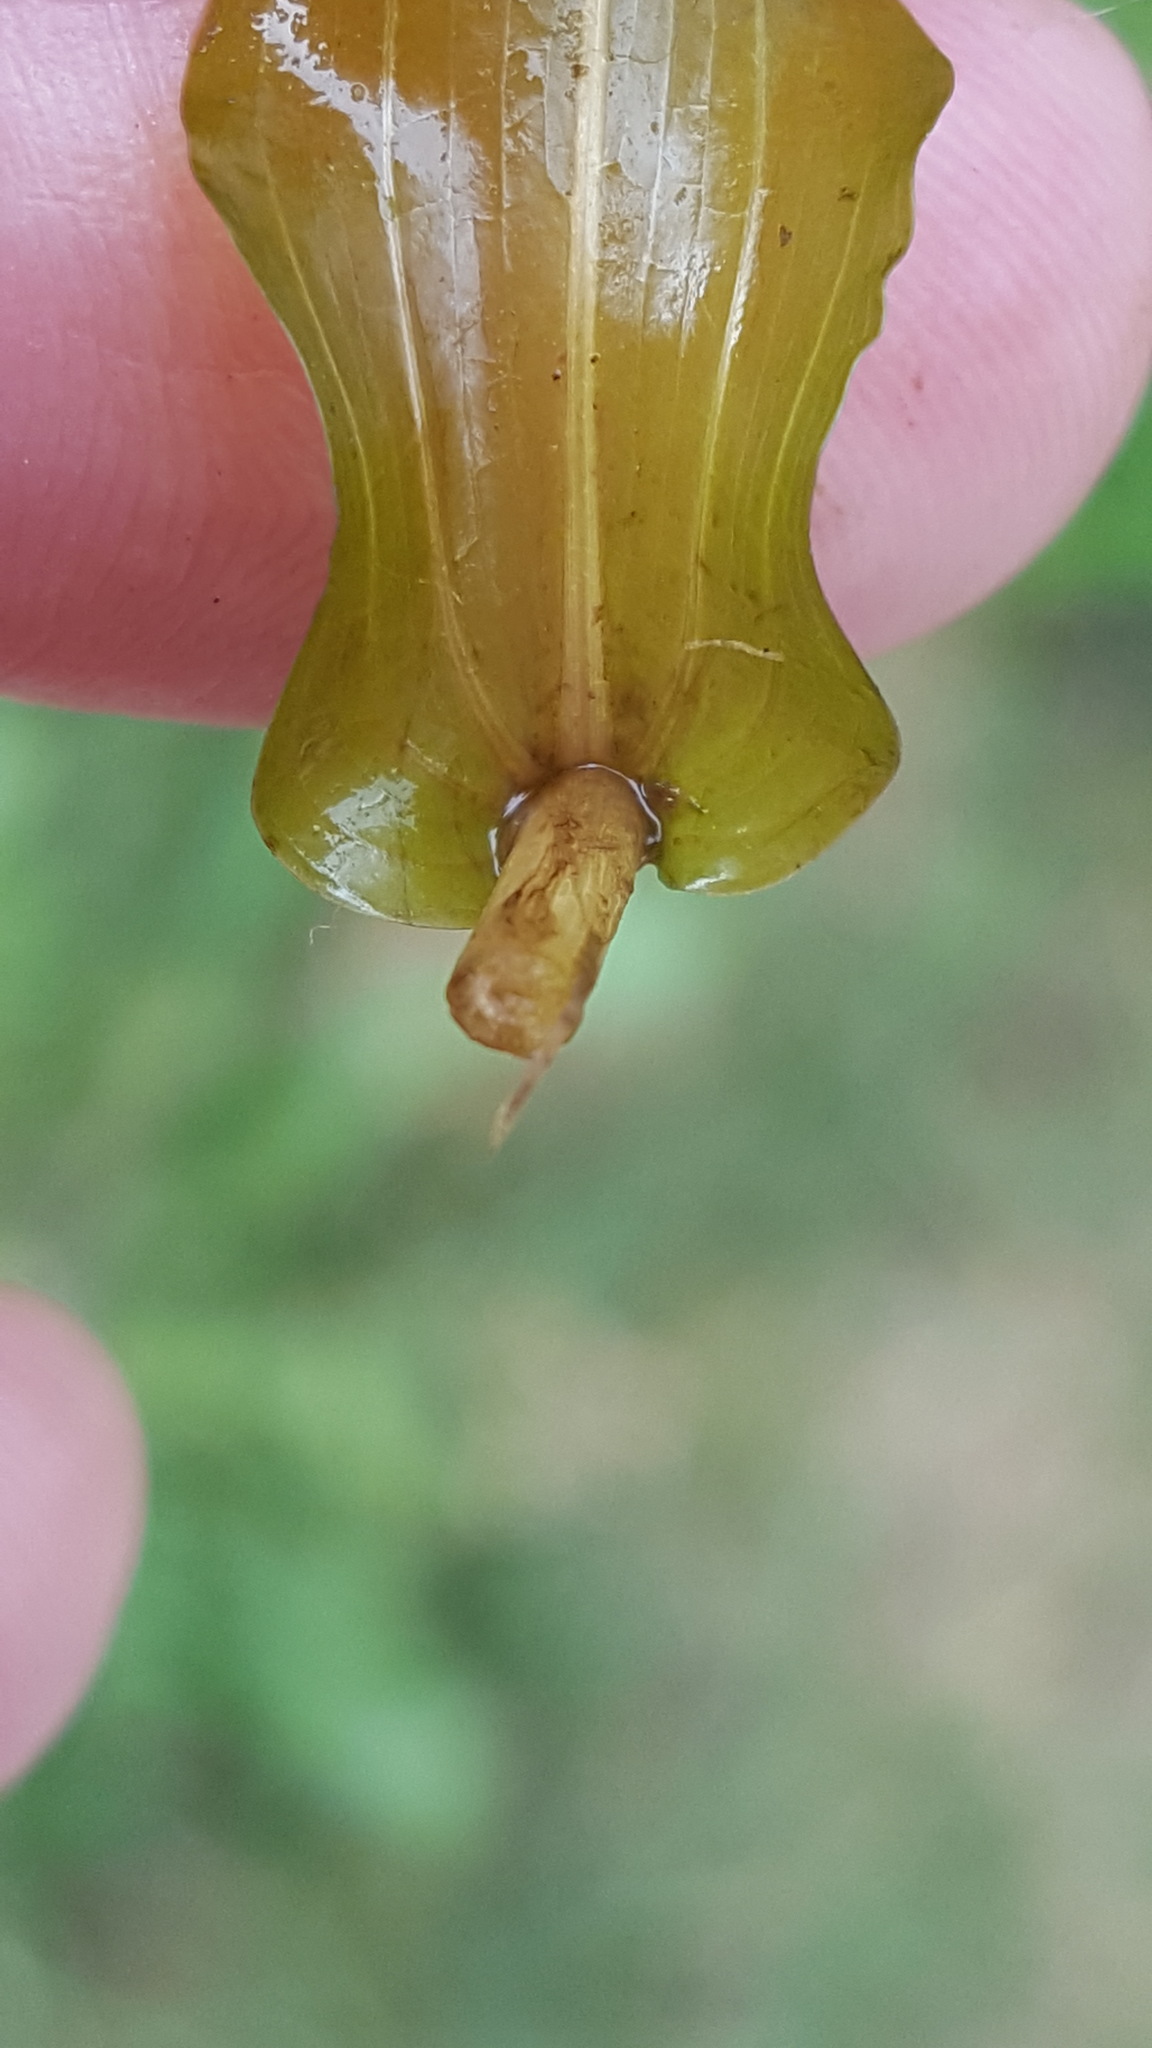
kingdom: Plantae
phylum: Tracheophyta
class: Liliopsida
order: Alismatales
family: Potamogetonaceae
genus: Potamogeton
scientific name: Potamogeton richardsonii
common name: Richardson's pondweed
